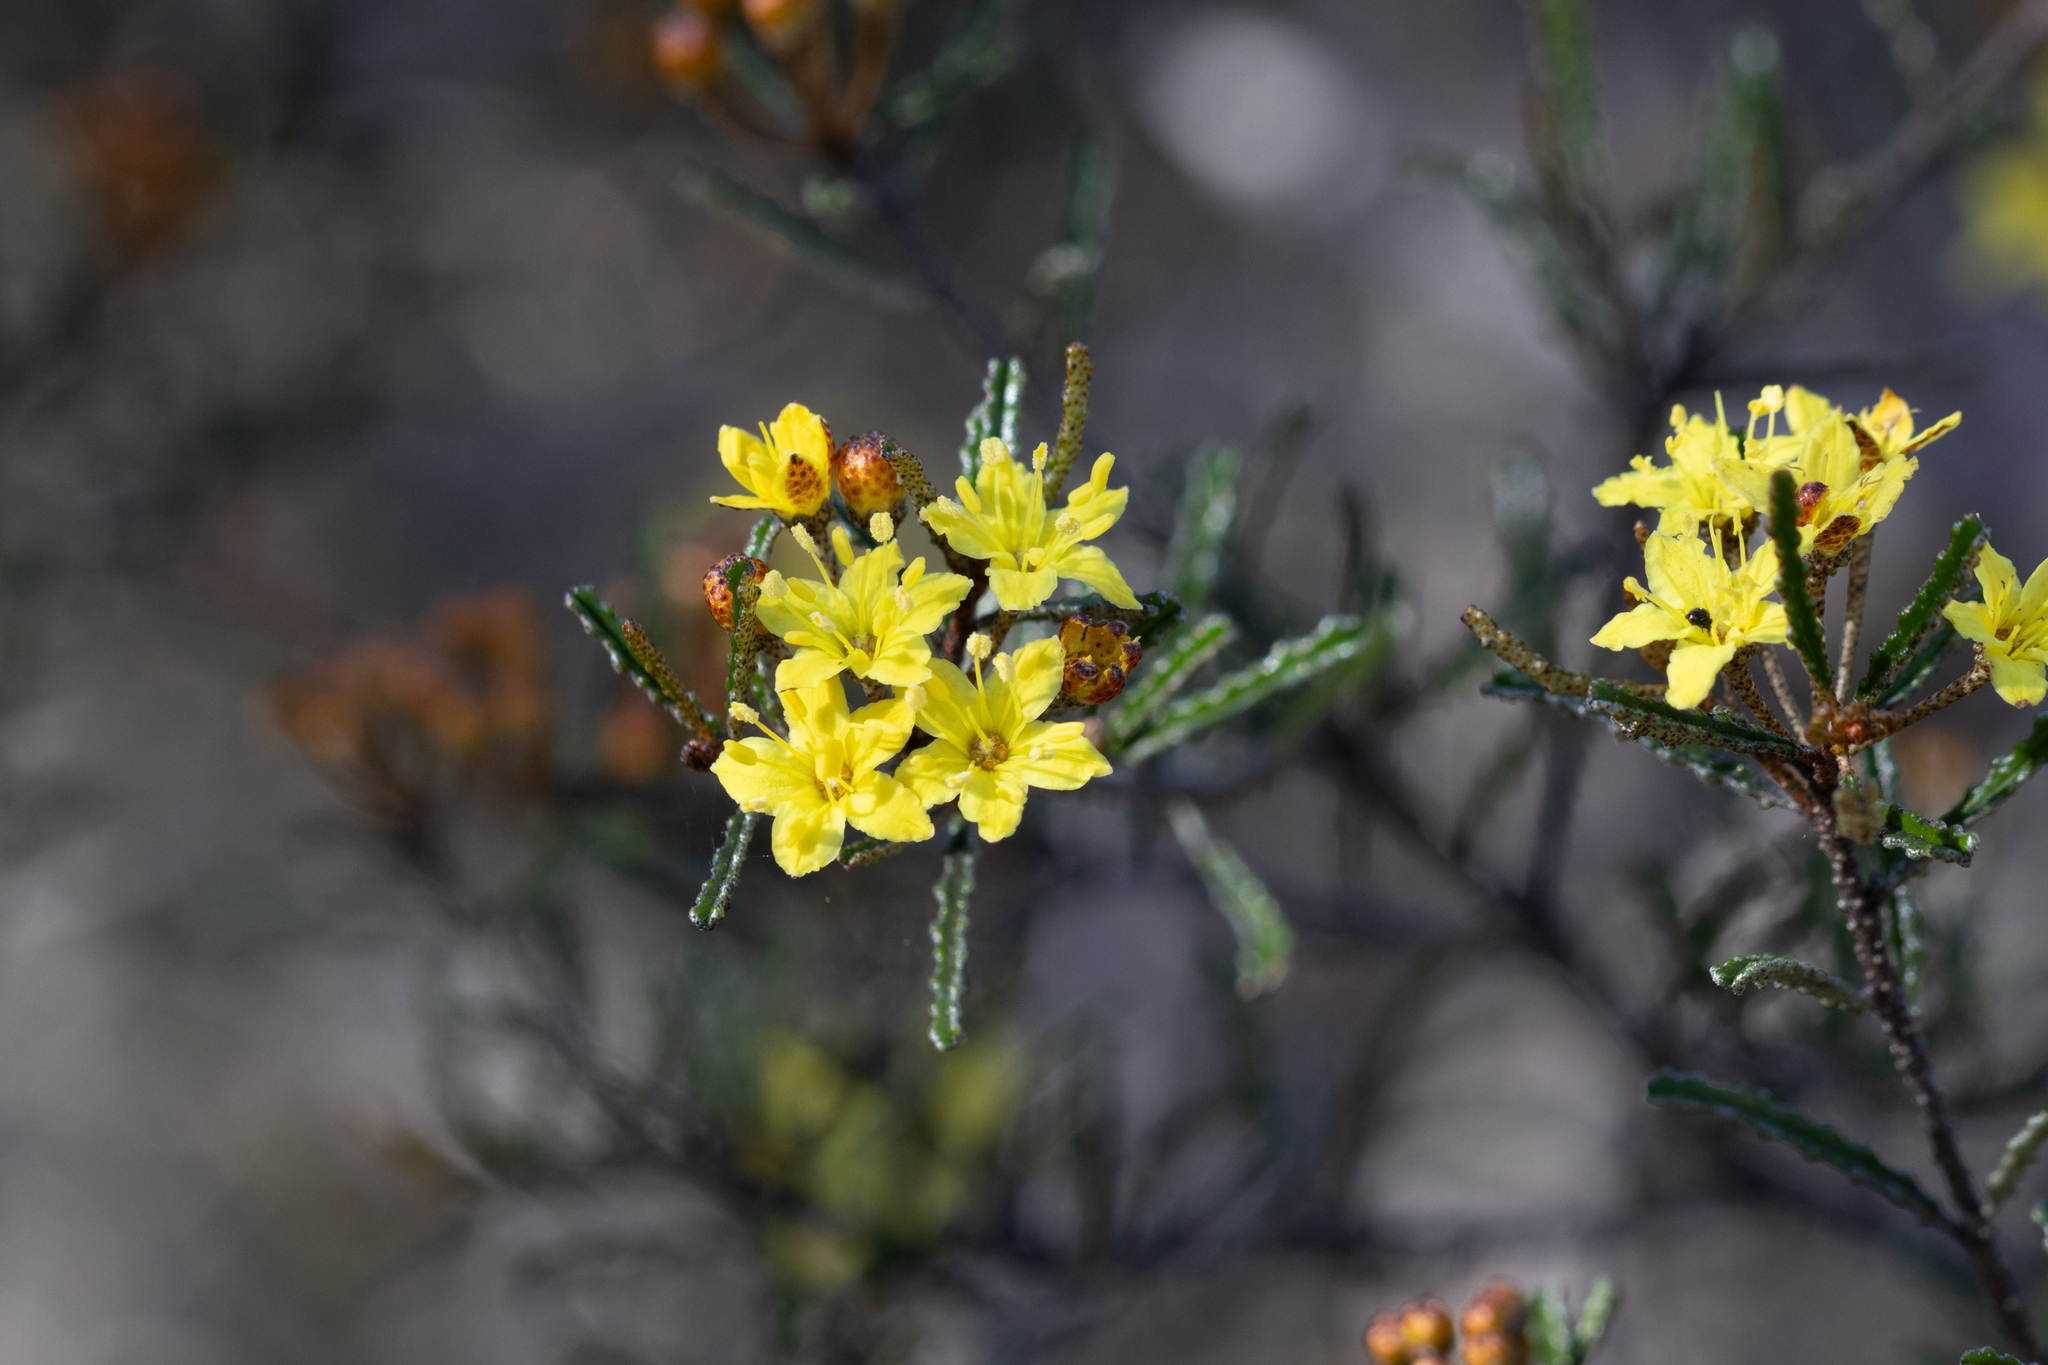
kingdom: Plantae
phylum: Tracheophyta
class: Magnoliopsida
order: Sapindales
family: Rutaceae
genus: Phebalium
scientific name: Phebalium bullatum
